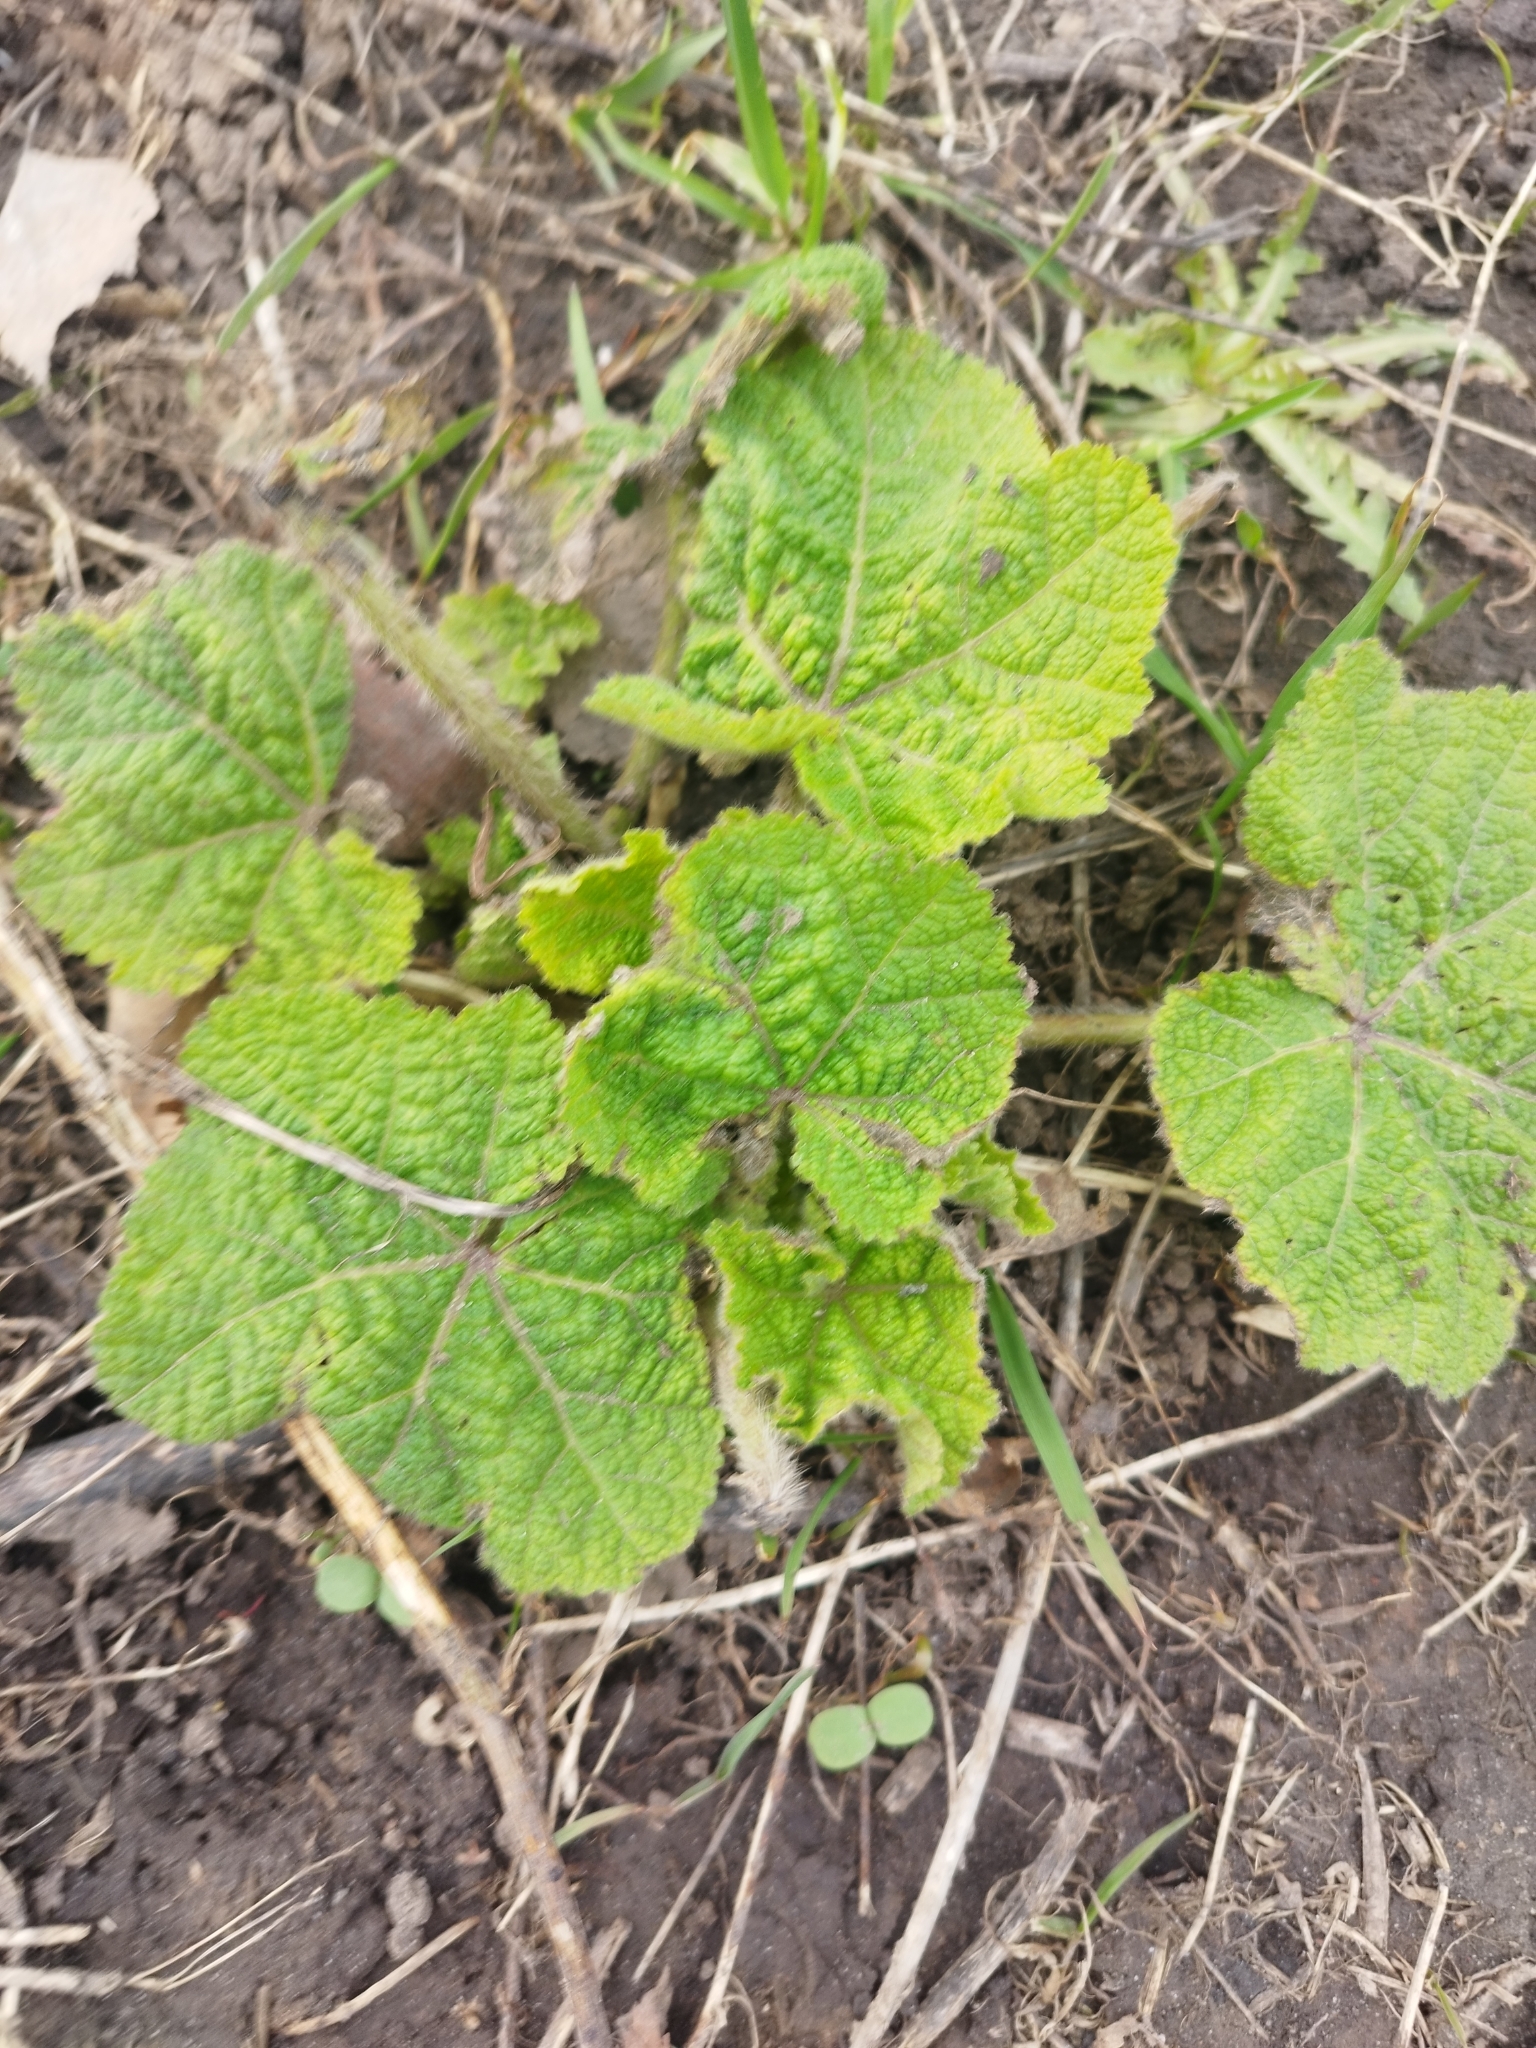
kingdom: Plantae
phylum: Tracheophyta
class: Magnoliopsida
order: Malvales
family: Malvaceae
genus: Alcea
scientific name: Alcea rosea
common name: Hollyhock
